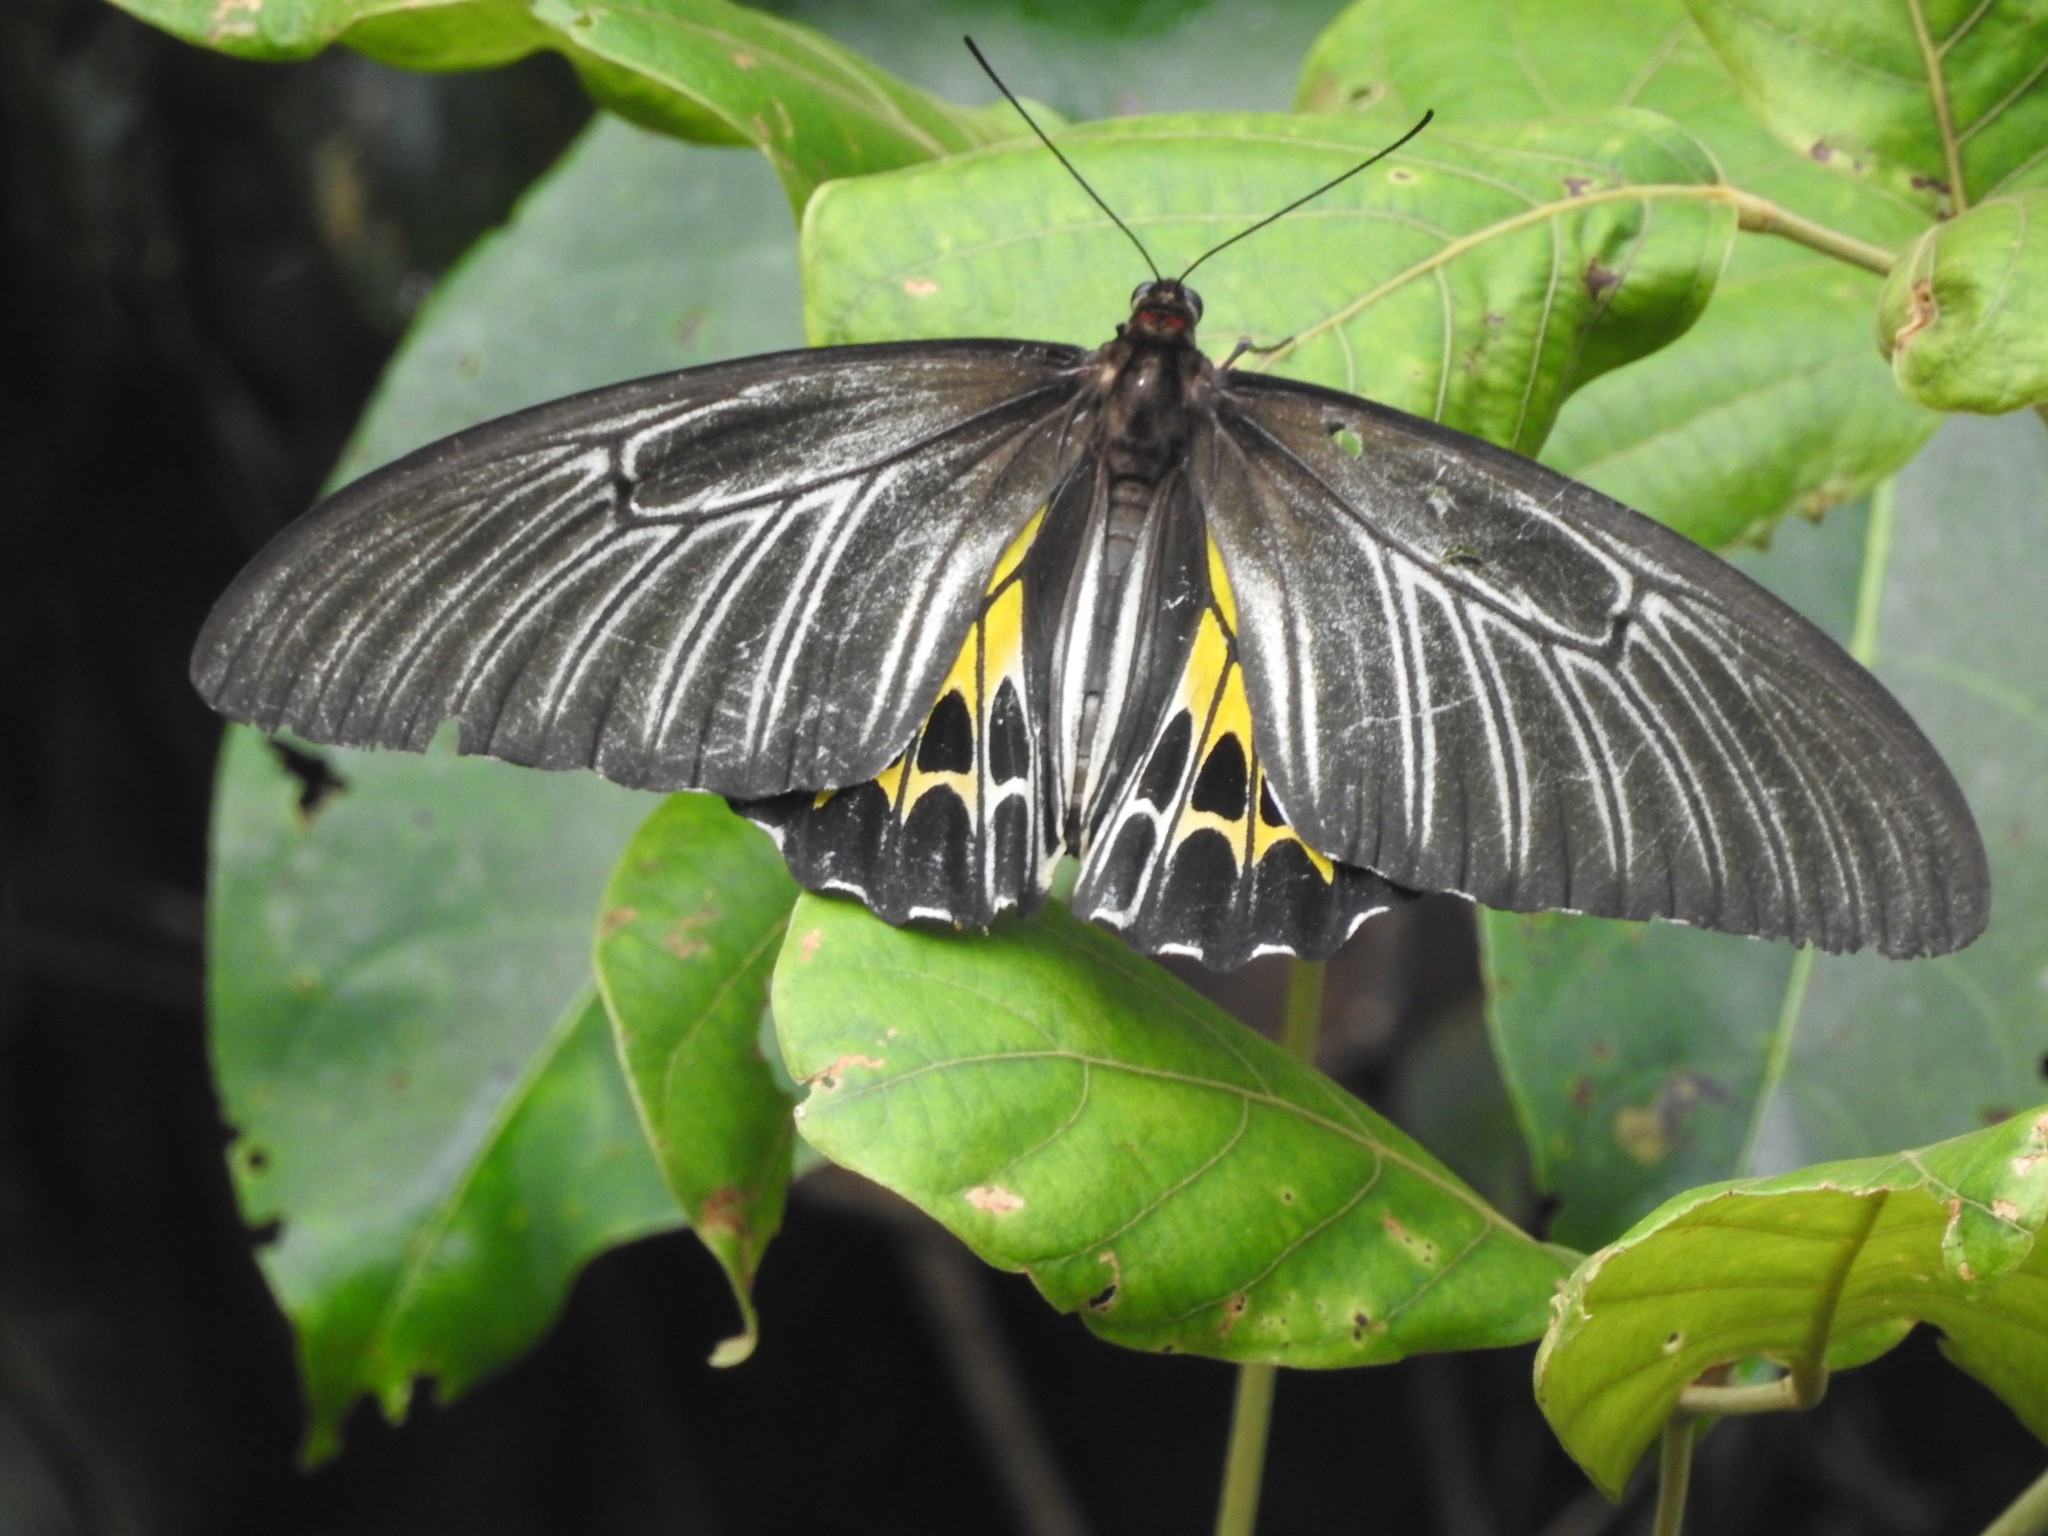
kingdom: Animalia
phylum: Arthropoda
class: Insecta
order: Lepidoptera
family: Papilionidae
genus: Troides
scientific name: Troides minos
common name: Malabar birdwing
